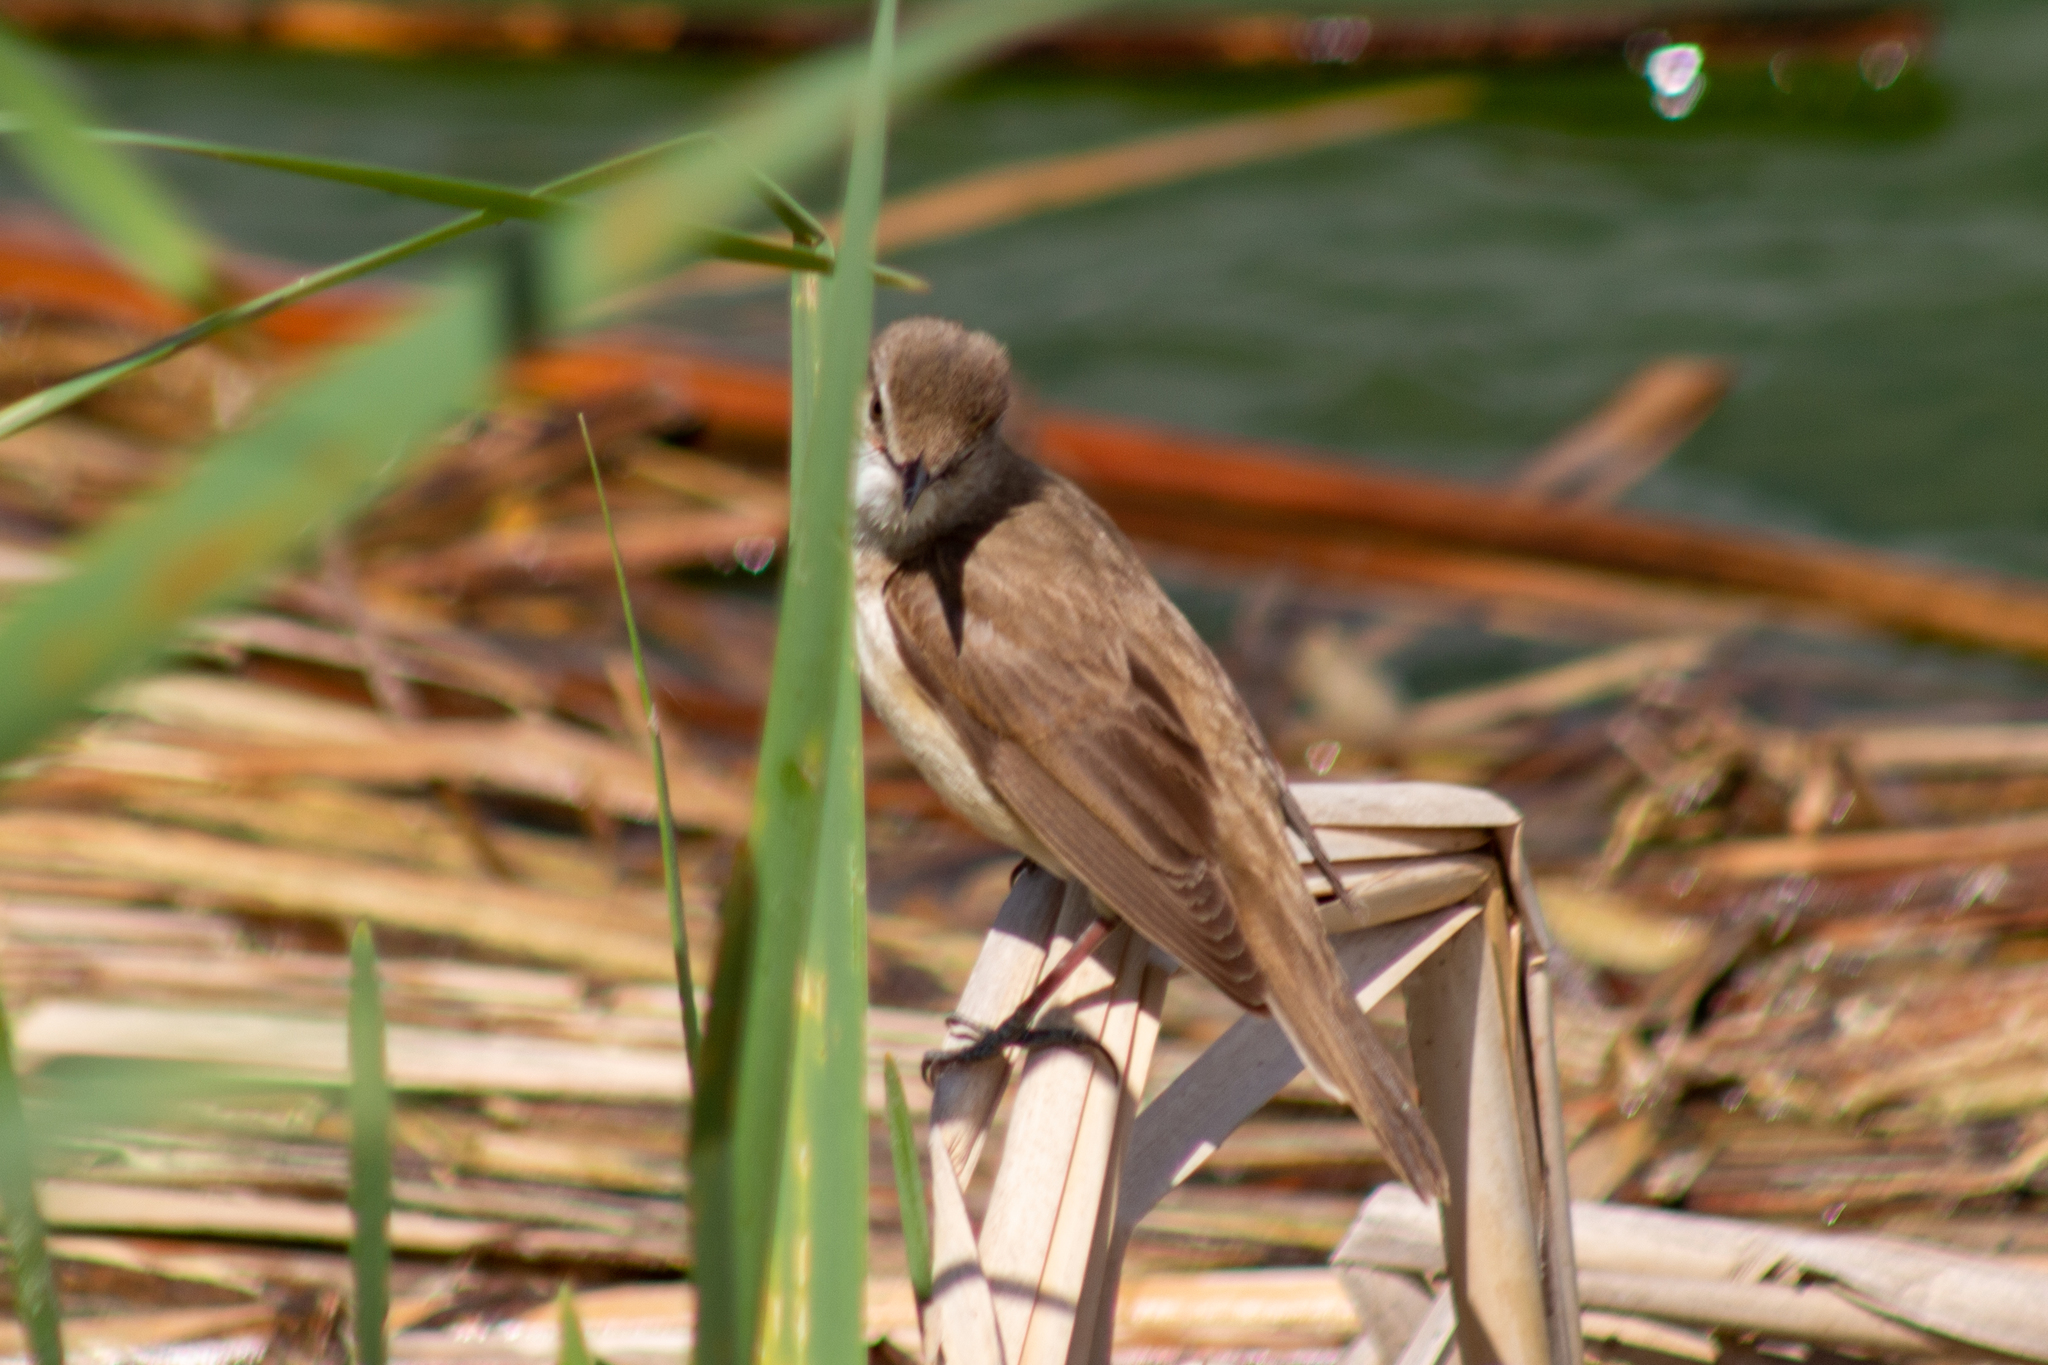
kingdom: Animalia
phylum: Chordata
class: Aves
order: Passeriformes
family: Acrocephalidae
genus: Acrocephalus
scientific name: Acrocephalus arundinaceus
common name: Great reed warbler
